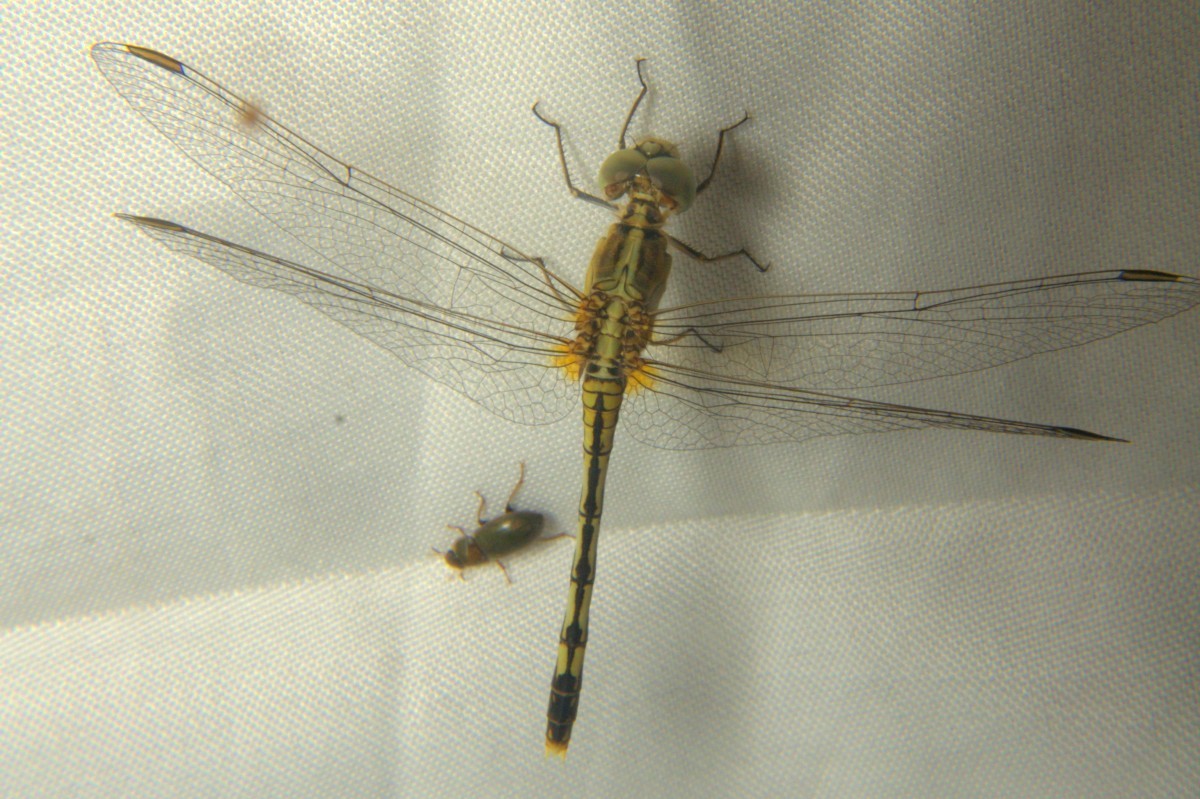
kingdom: Animalia
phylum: Arthropoda
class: Insecta
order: Odonata
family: Libellulidae
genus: Diplacodes
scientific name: Diplacodes trivialis
